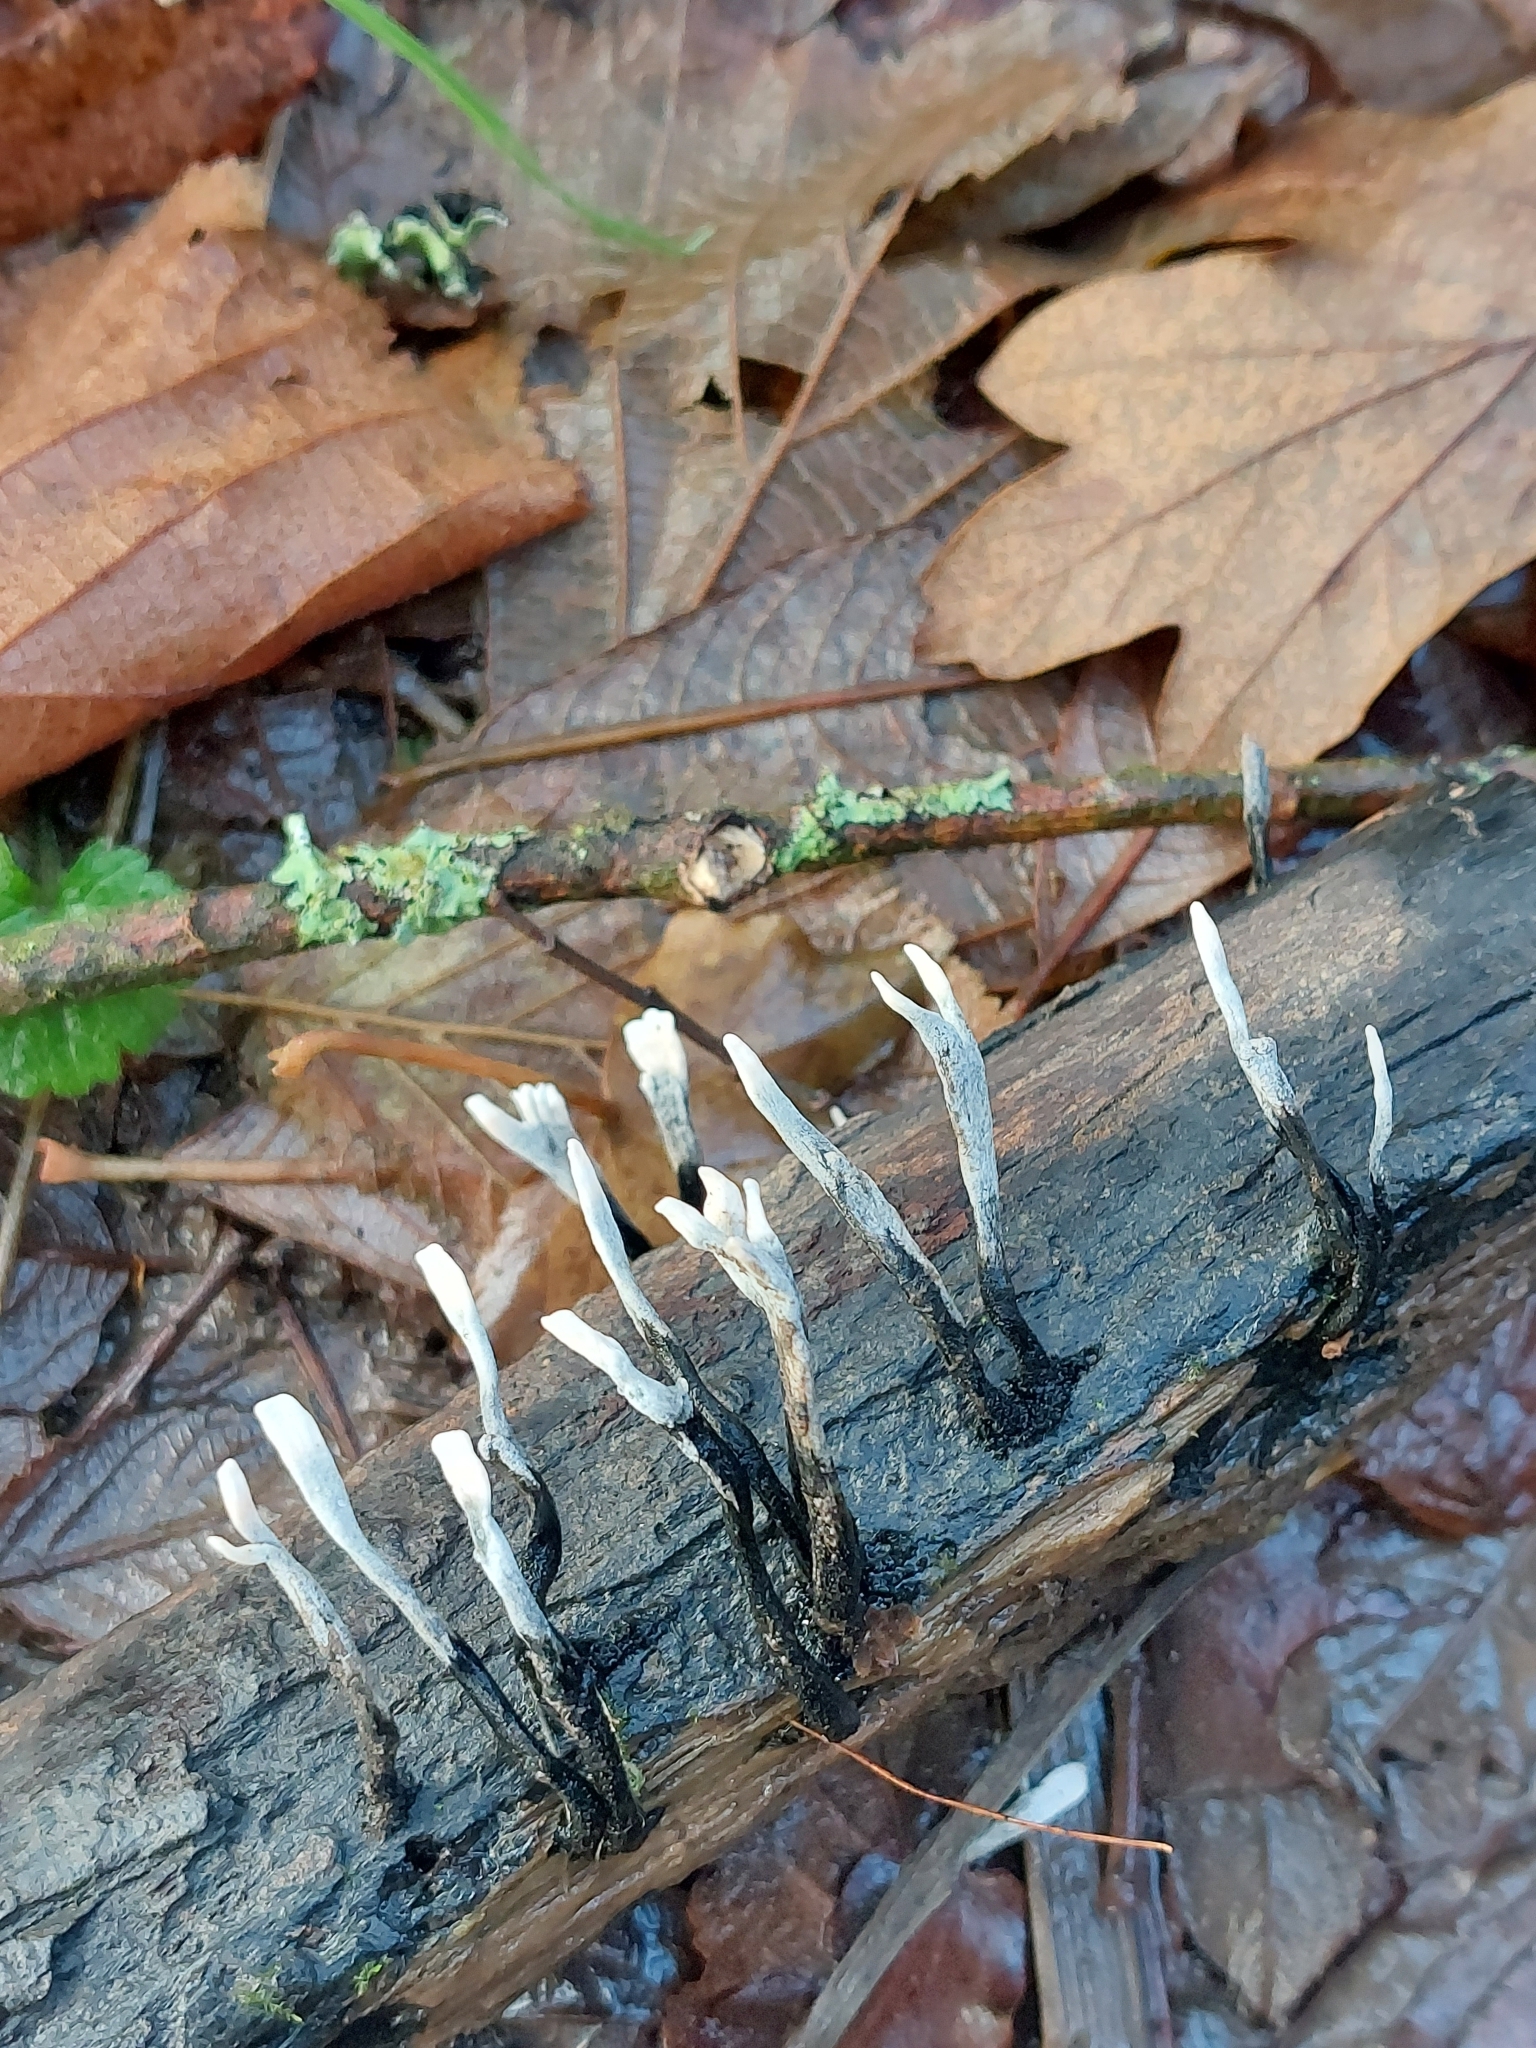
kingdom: Fungi
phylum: Ascomycota
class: Sordariomycetes
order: Xylariales
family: Xylariaceae
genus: Xylaria
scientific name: Xylaria hypoxylon
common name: Candle-snuff fungus
